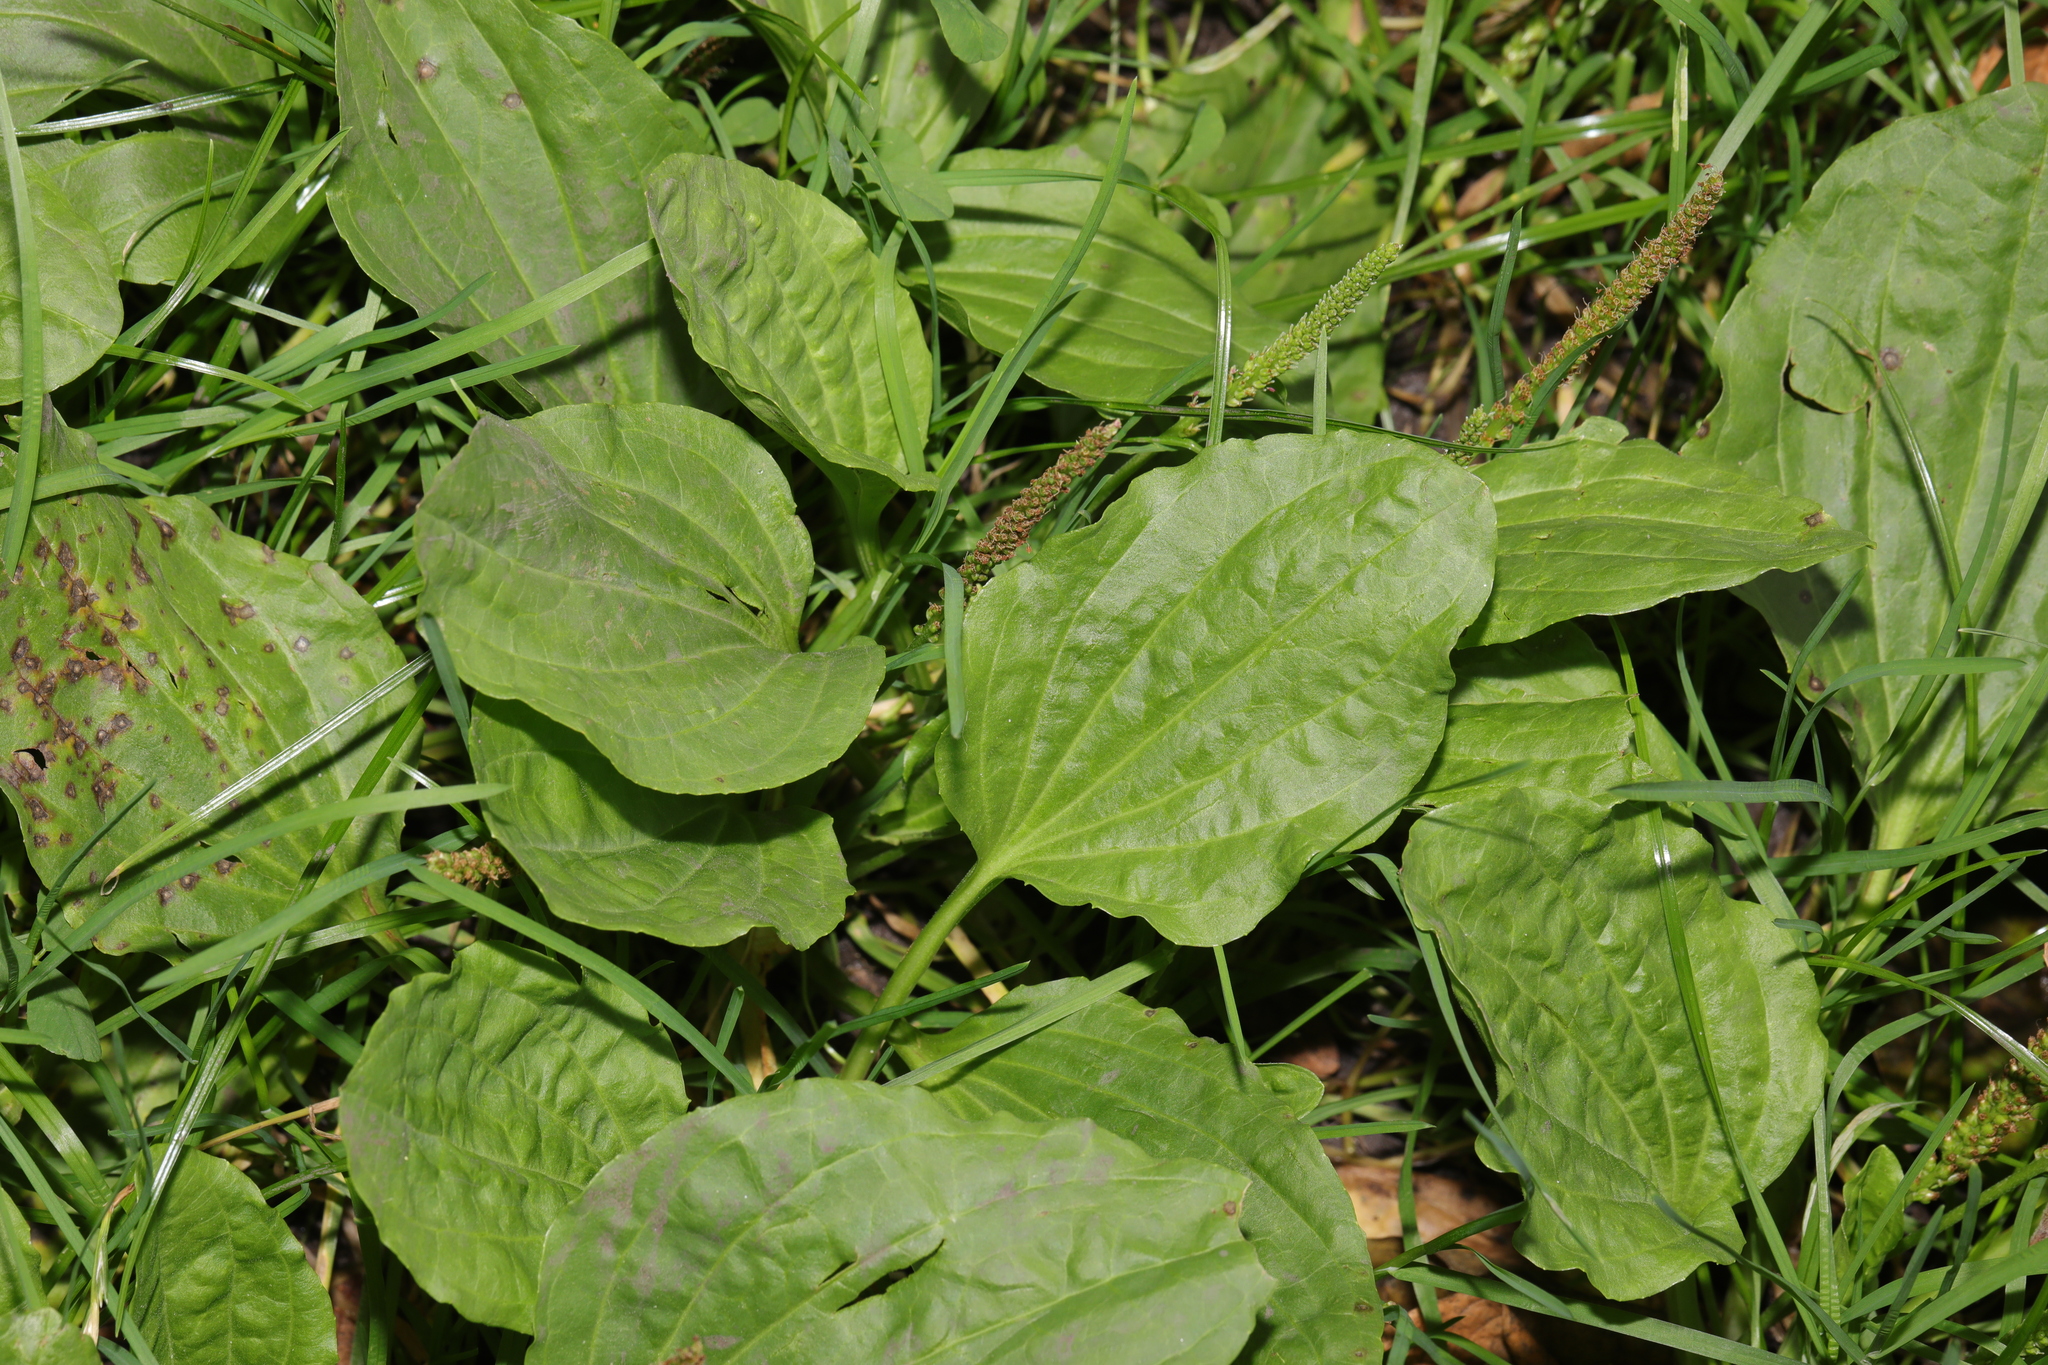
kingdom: Plantae
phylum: Tracheophyta
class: Magnoliopsida
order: Lamiales
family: Plantaginaceae
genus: Plantago
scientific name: Plantago major
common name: Common plantain
